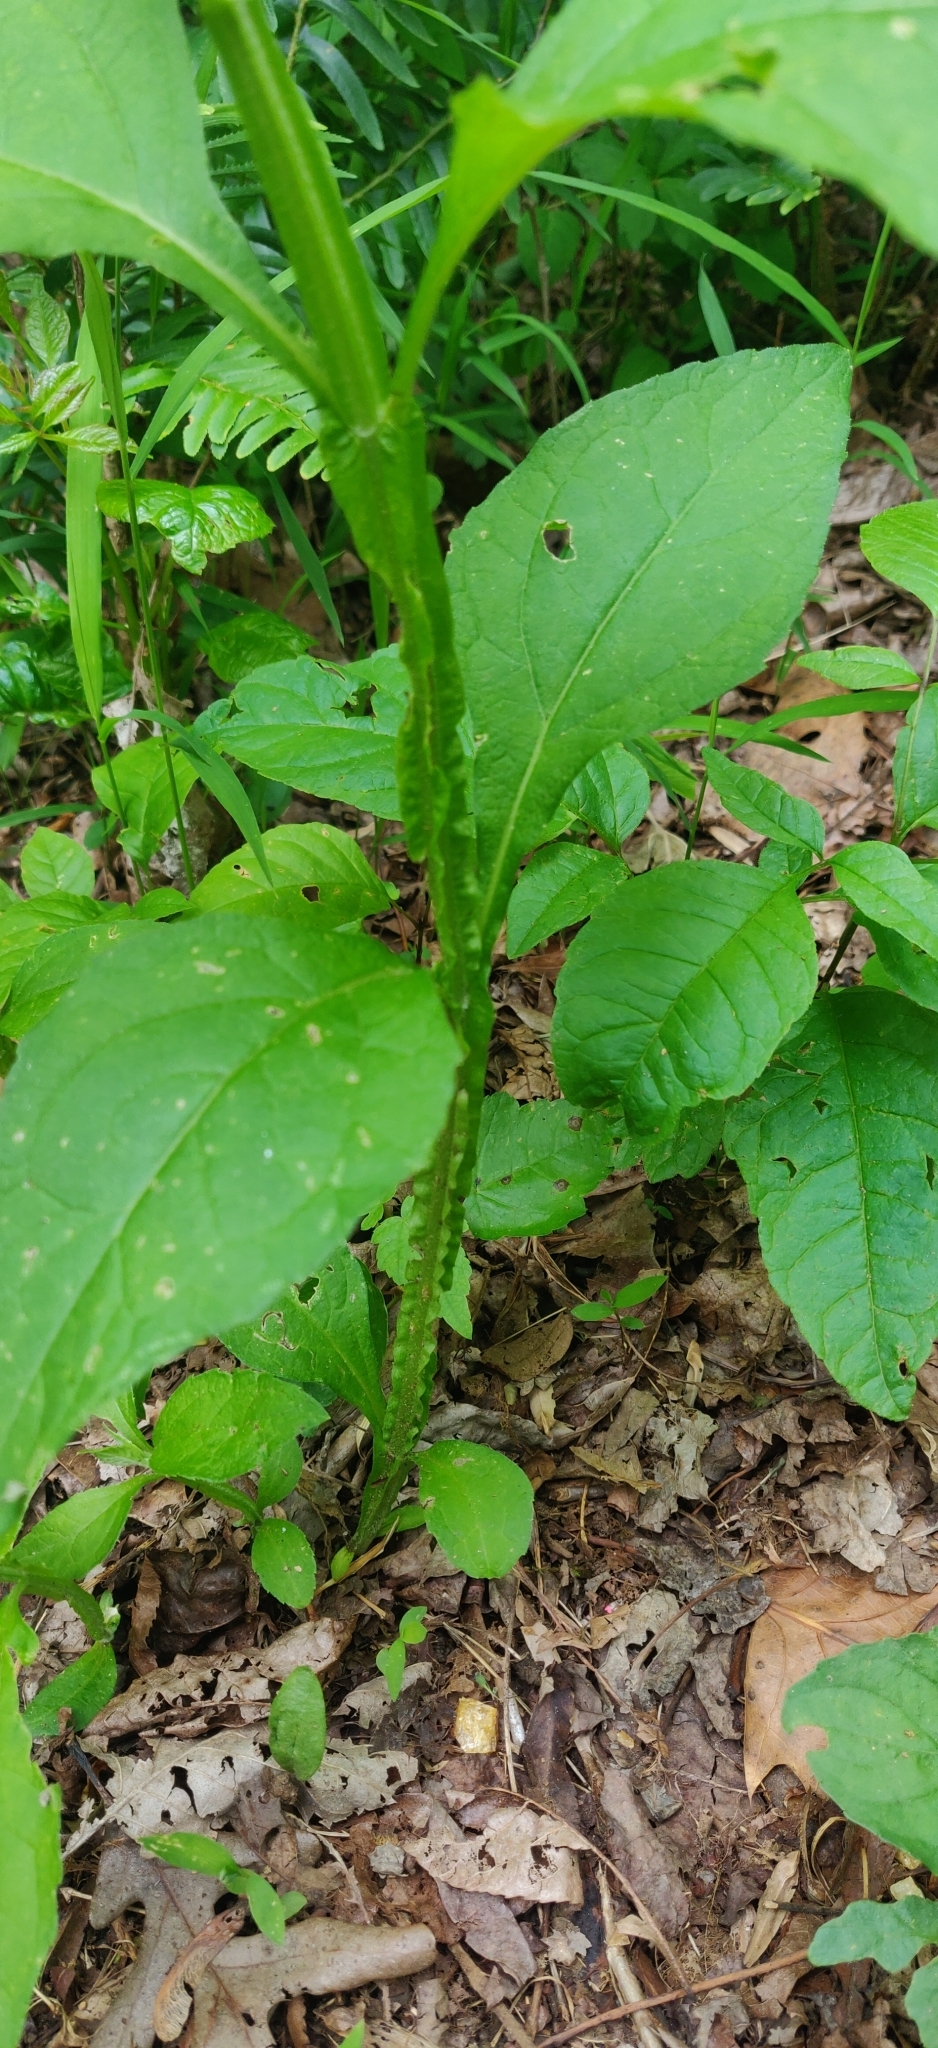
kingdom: Plantae
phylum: Tracheophyta
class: Magnoliopsida
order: Asterales
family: Asteraceae
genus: Verbesina
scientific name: Verbesina occidentalis
